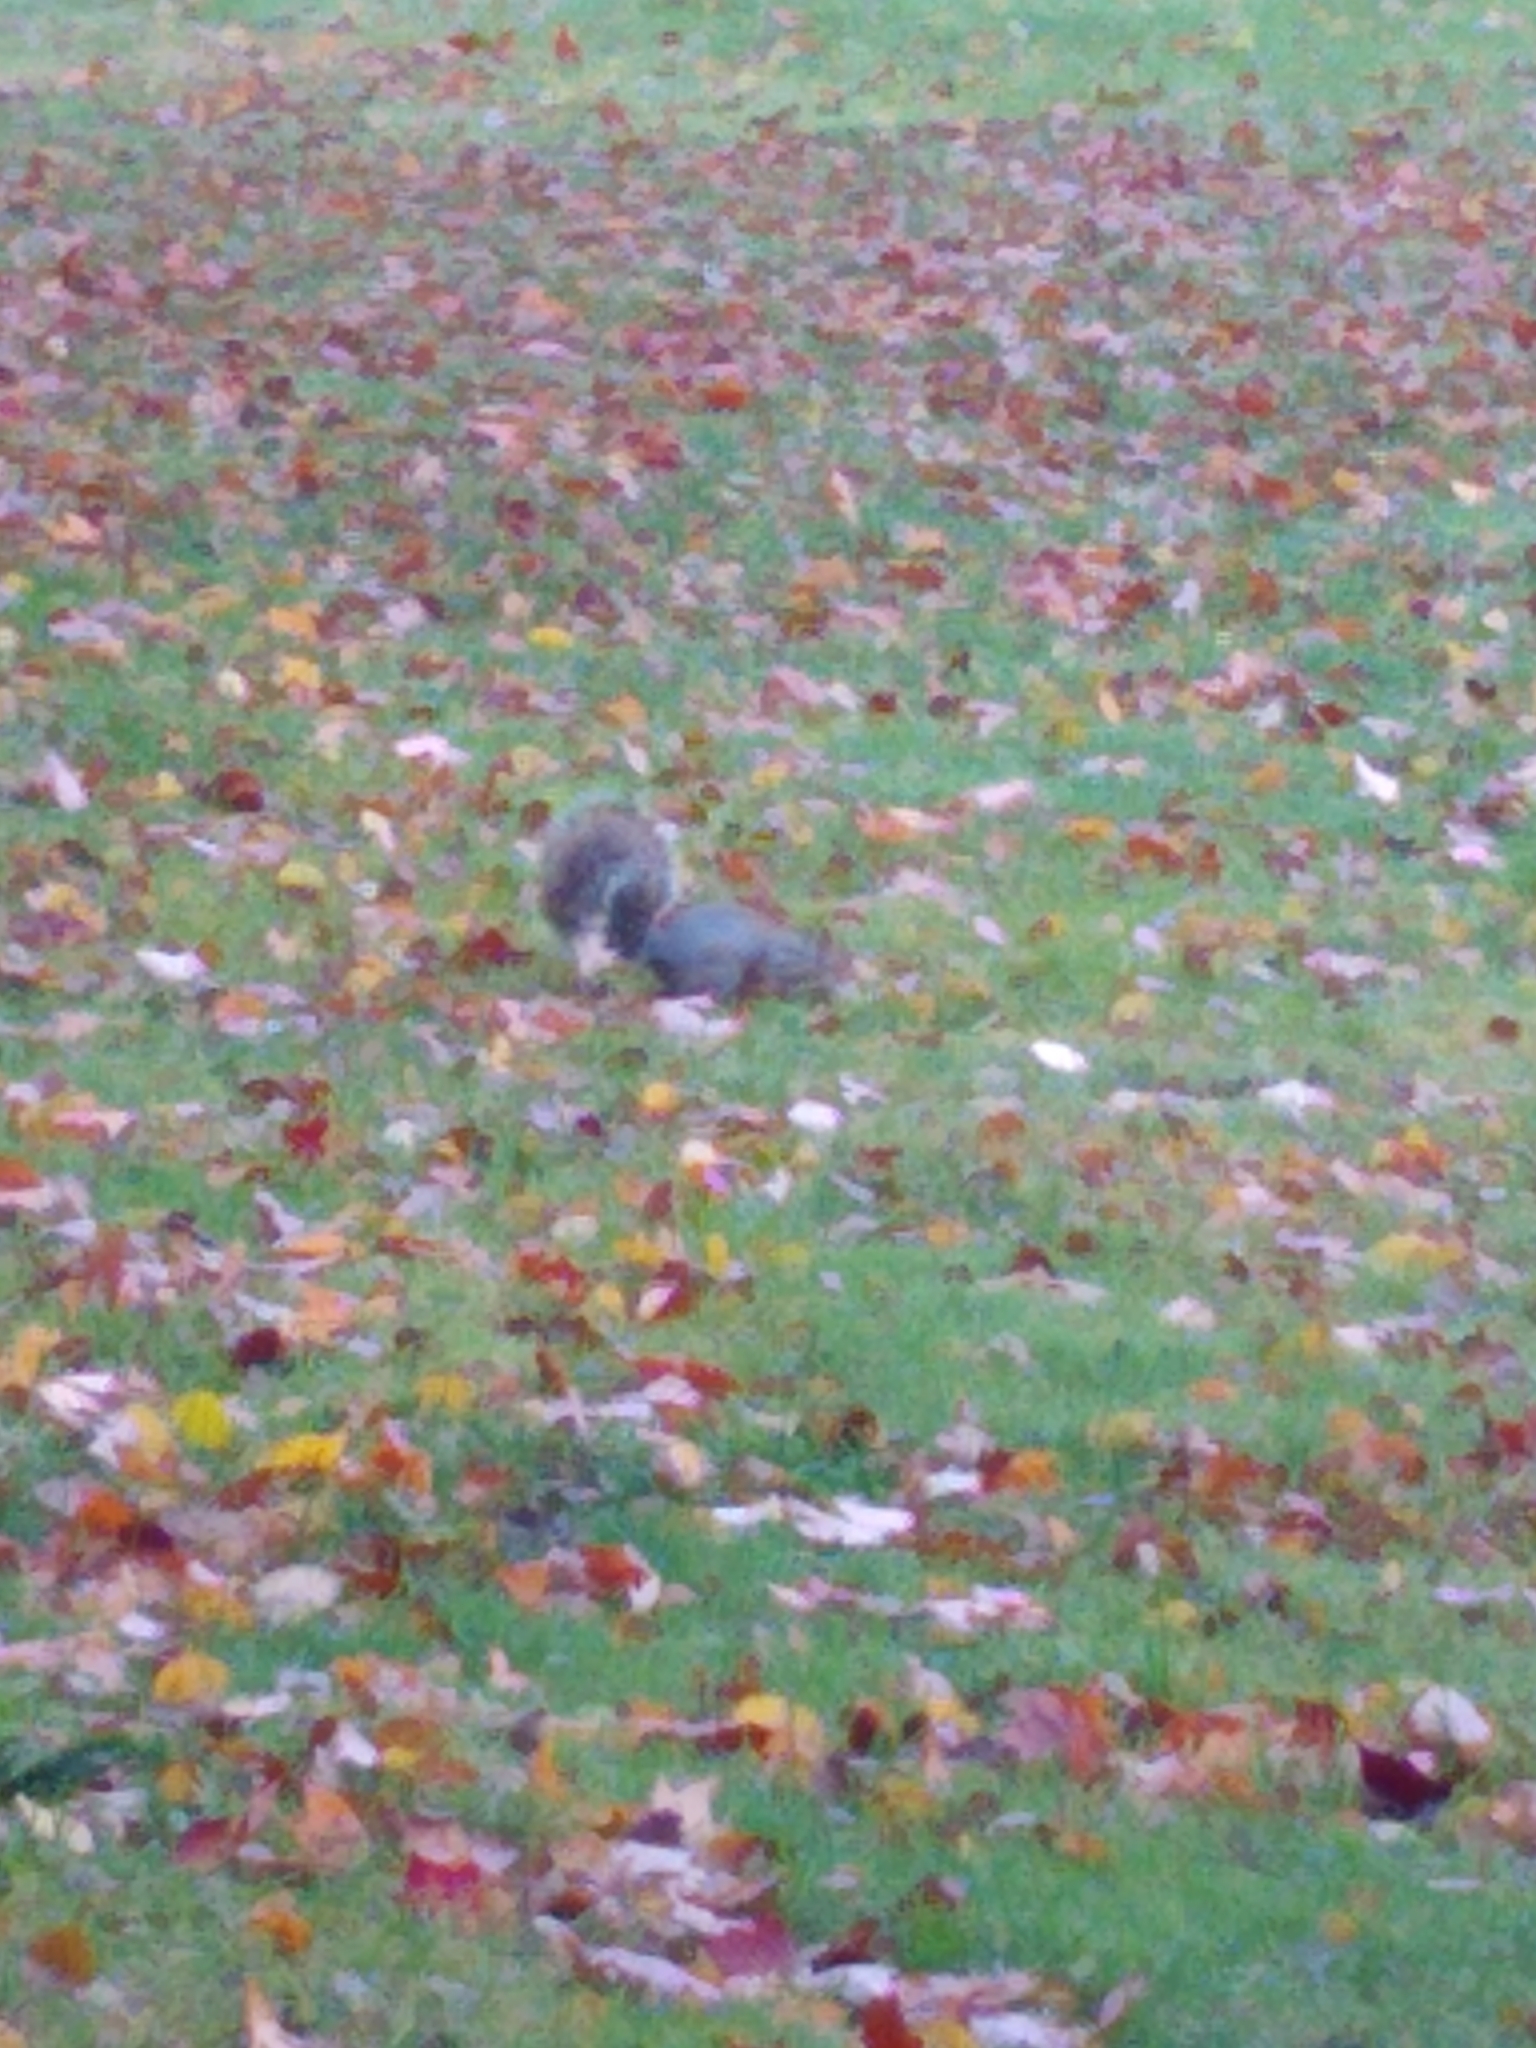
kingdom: Animalia
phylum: Chordata
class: Mammalia
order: Rodentia
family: Sciuridae
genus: Sciurus
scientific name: Sciurus carolinensis
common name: Eastern gray squirrel
